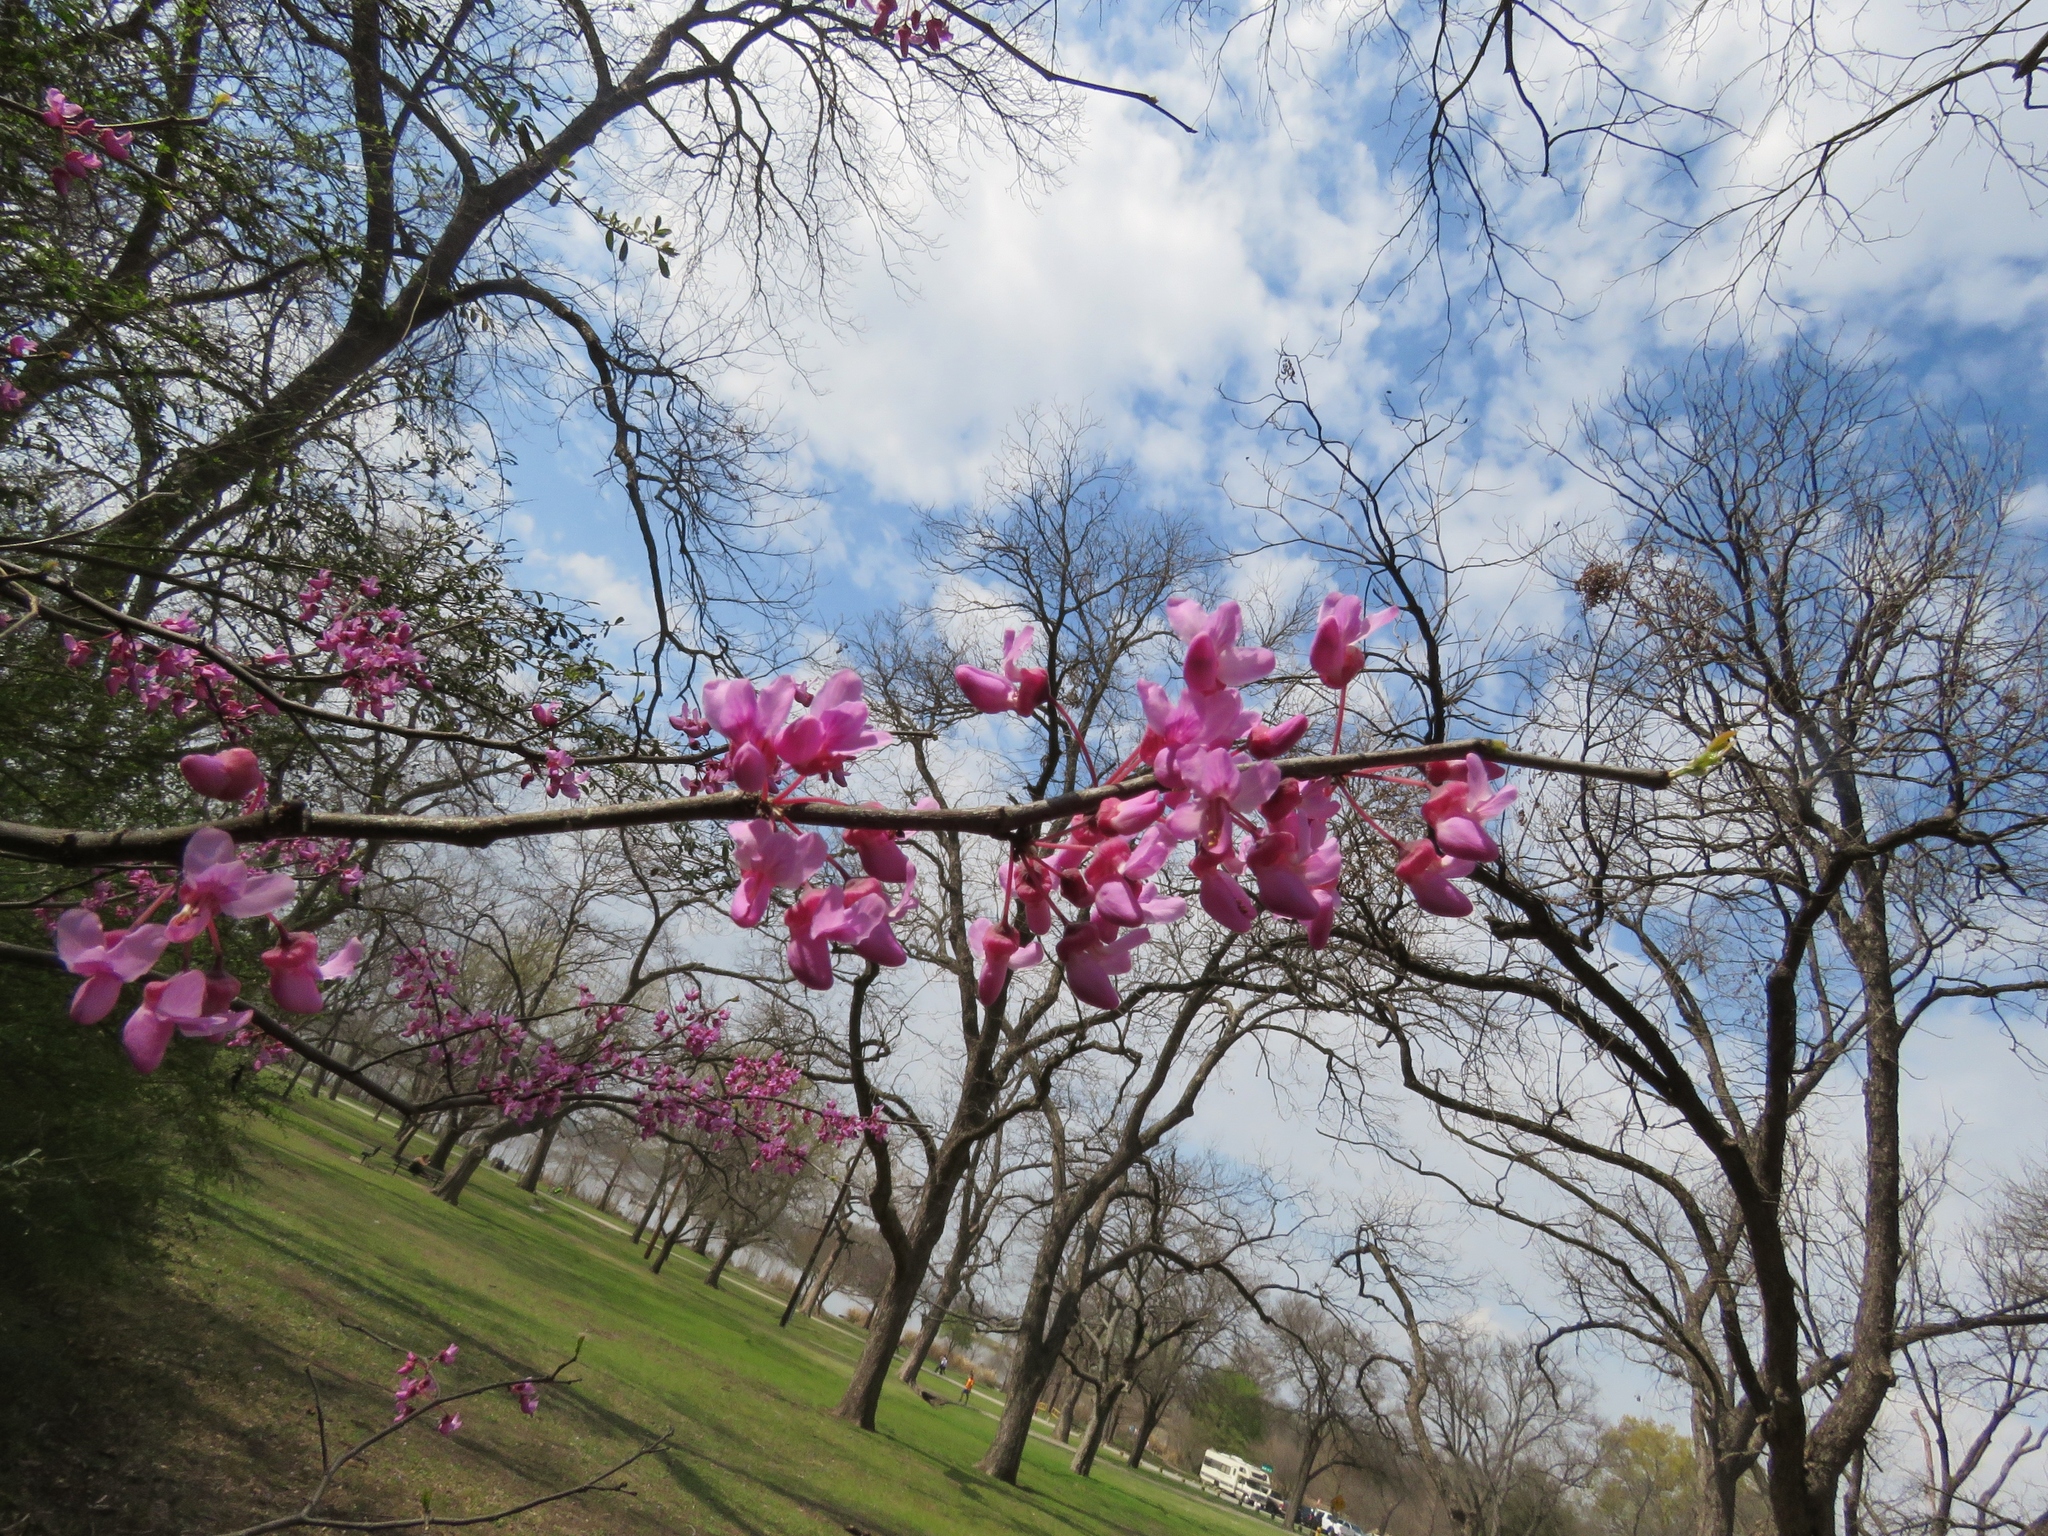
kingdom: Plantae
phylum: Tracheophyta
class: Magnoliopsida
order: Fabales
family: Fabaceae
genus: Cercis
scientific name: Cercis canadensis
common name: Eastern redbud
